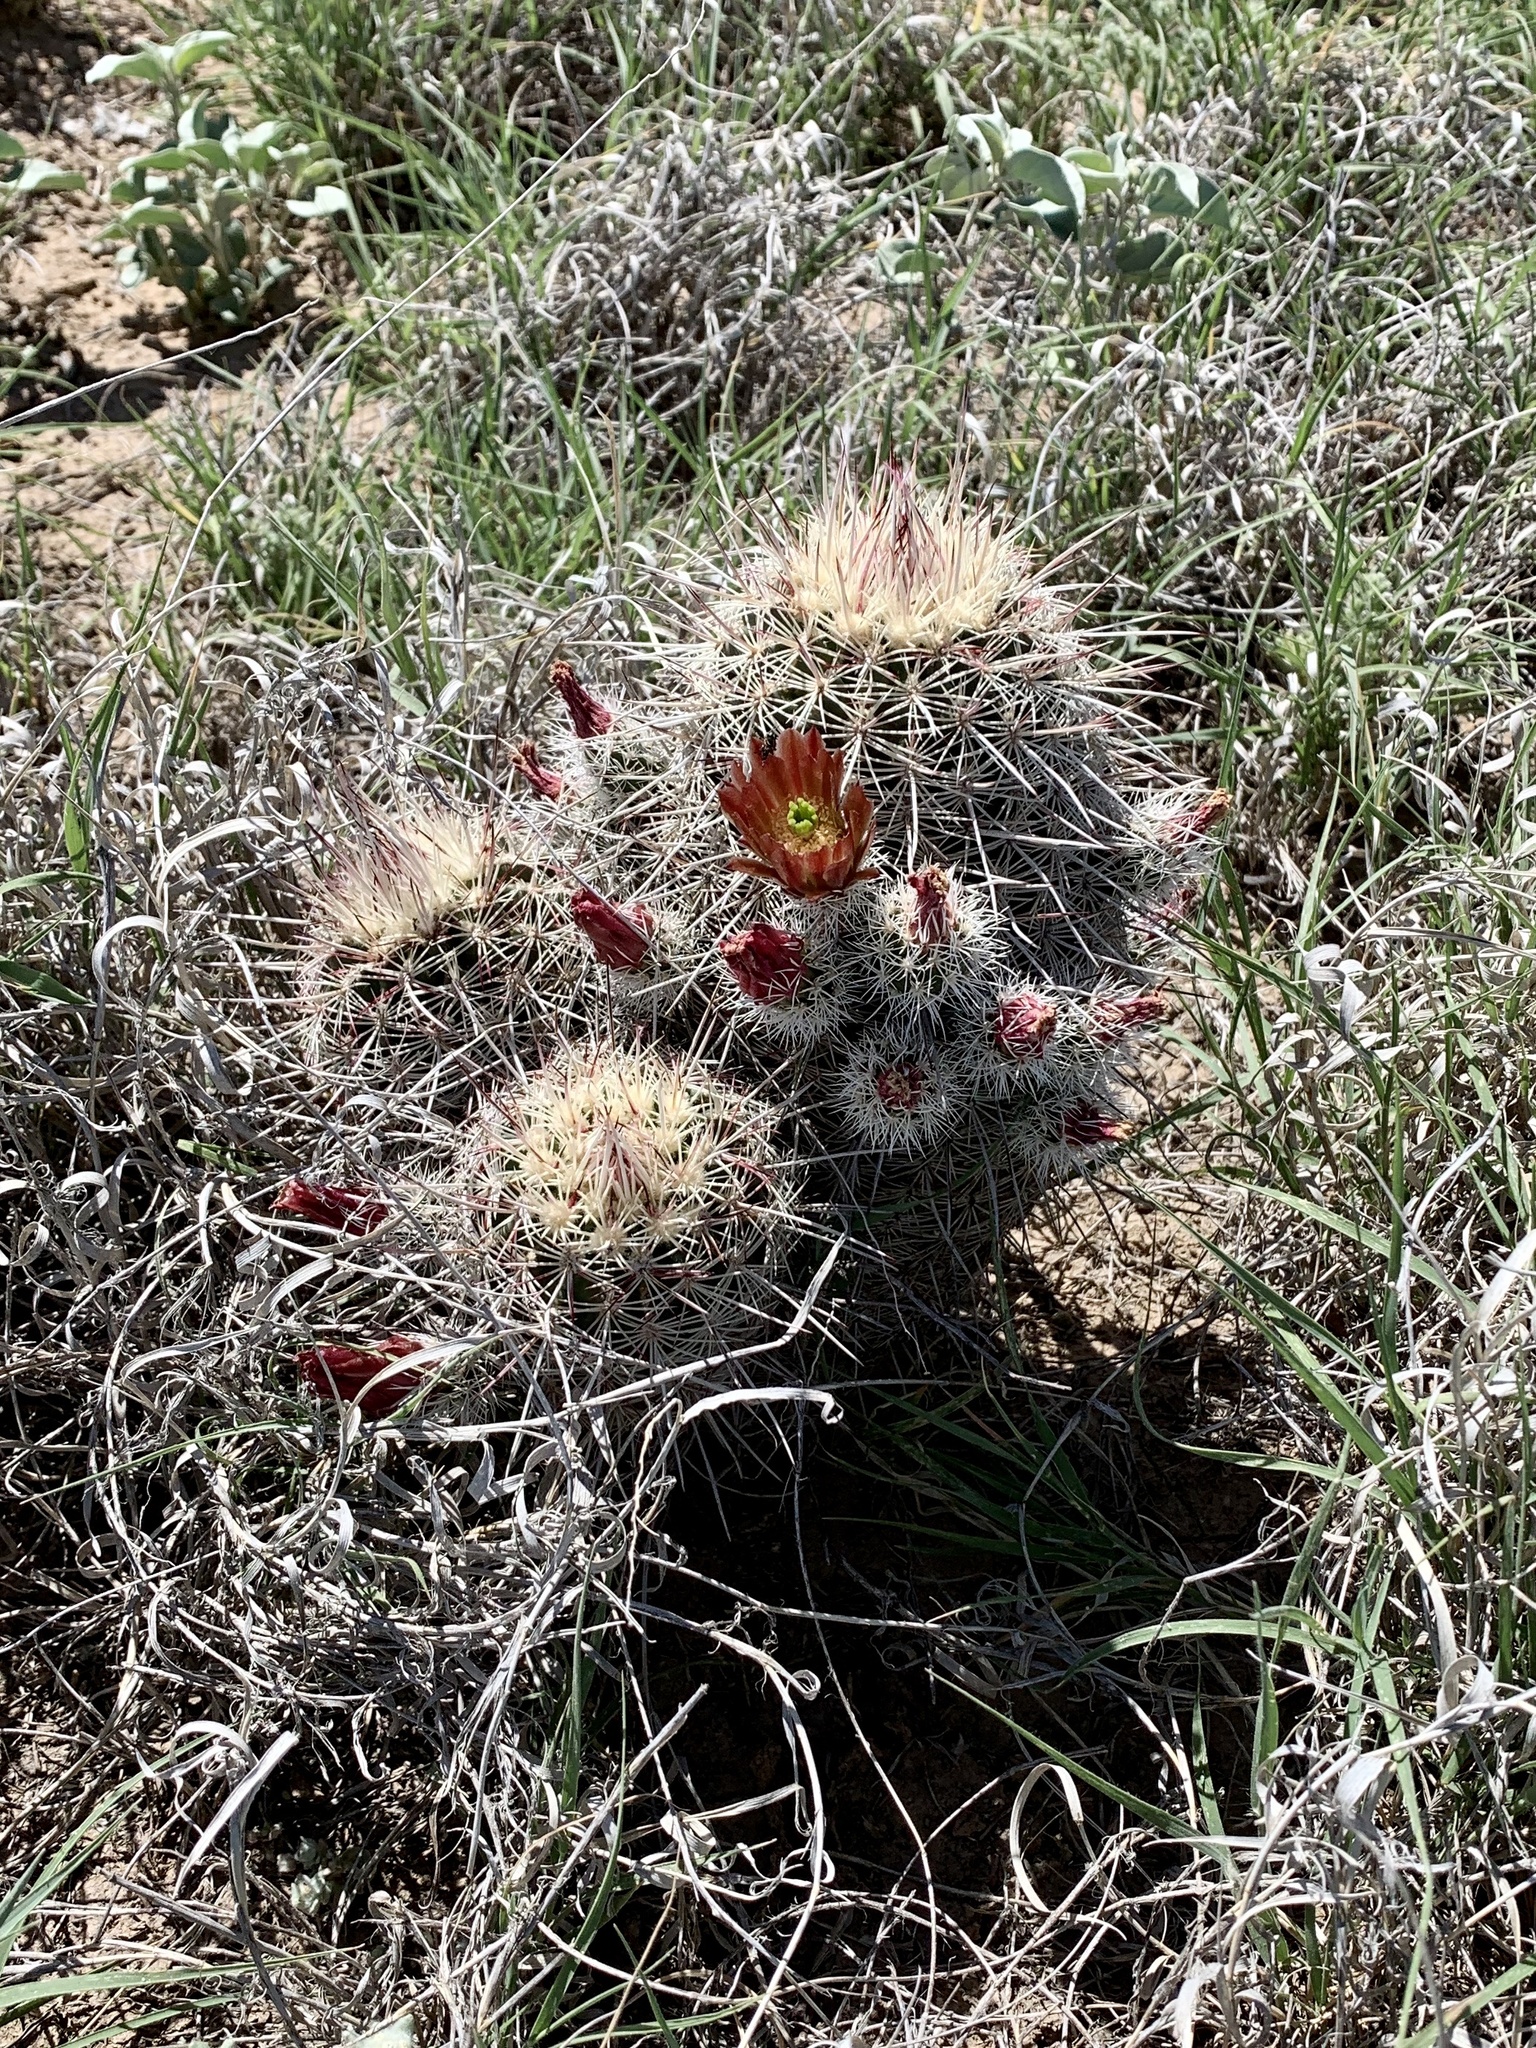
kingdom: Plantae
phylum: Tracheophyta
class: Magnoliopsida
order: Caryophyllales
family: Cactaceae
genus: Echinocereus
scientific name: Echinocereus viridiflorus
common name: Nylon hedgehog cactus
